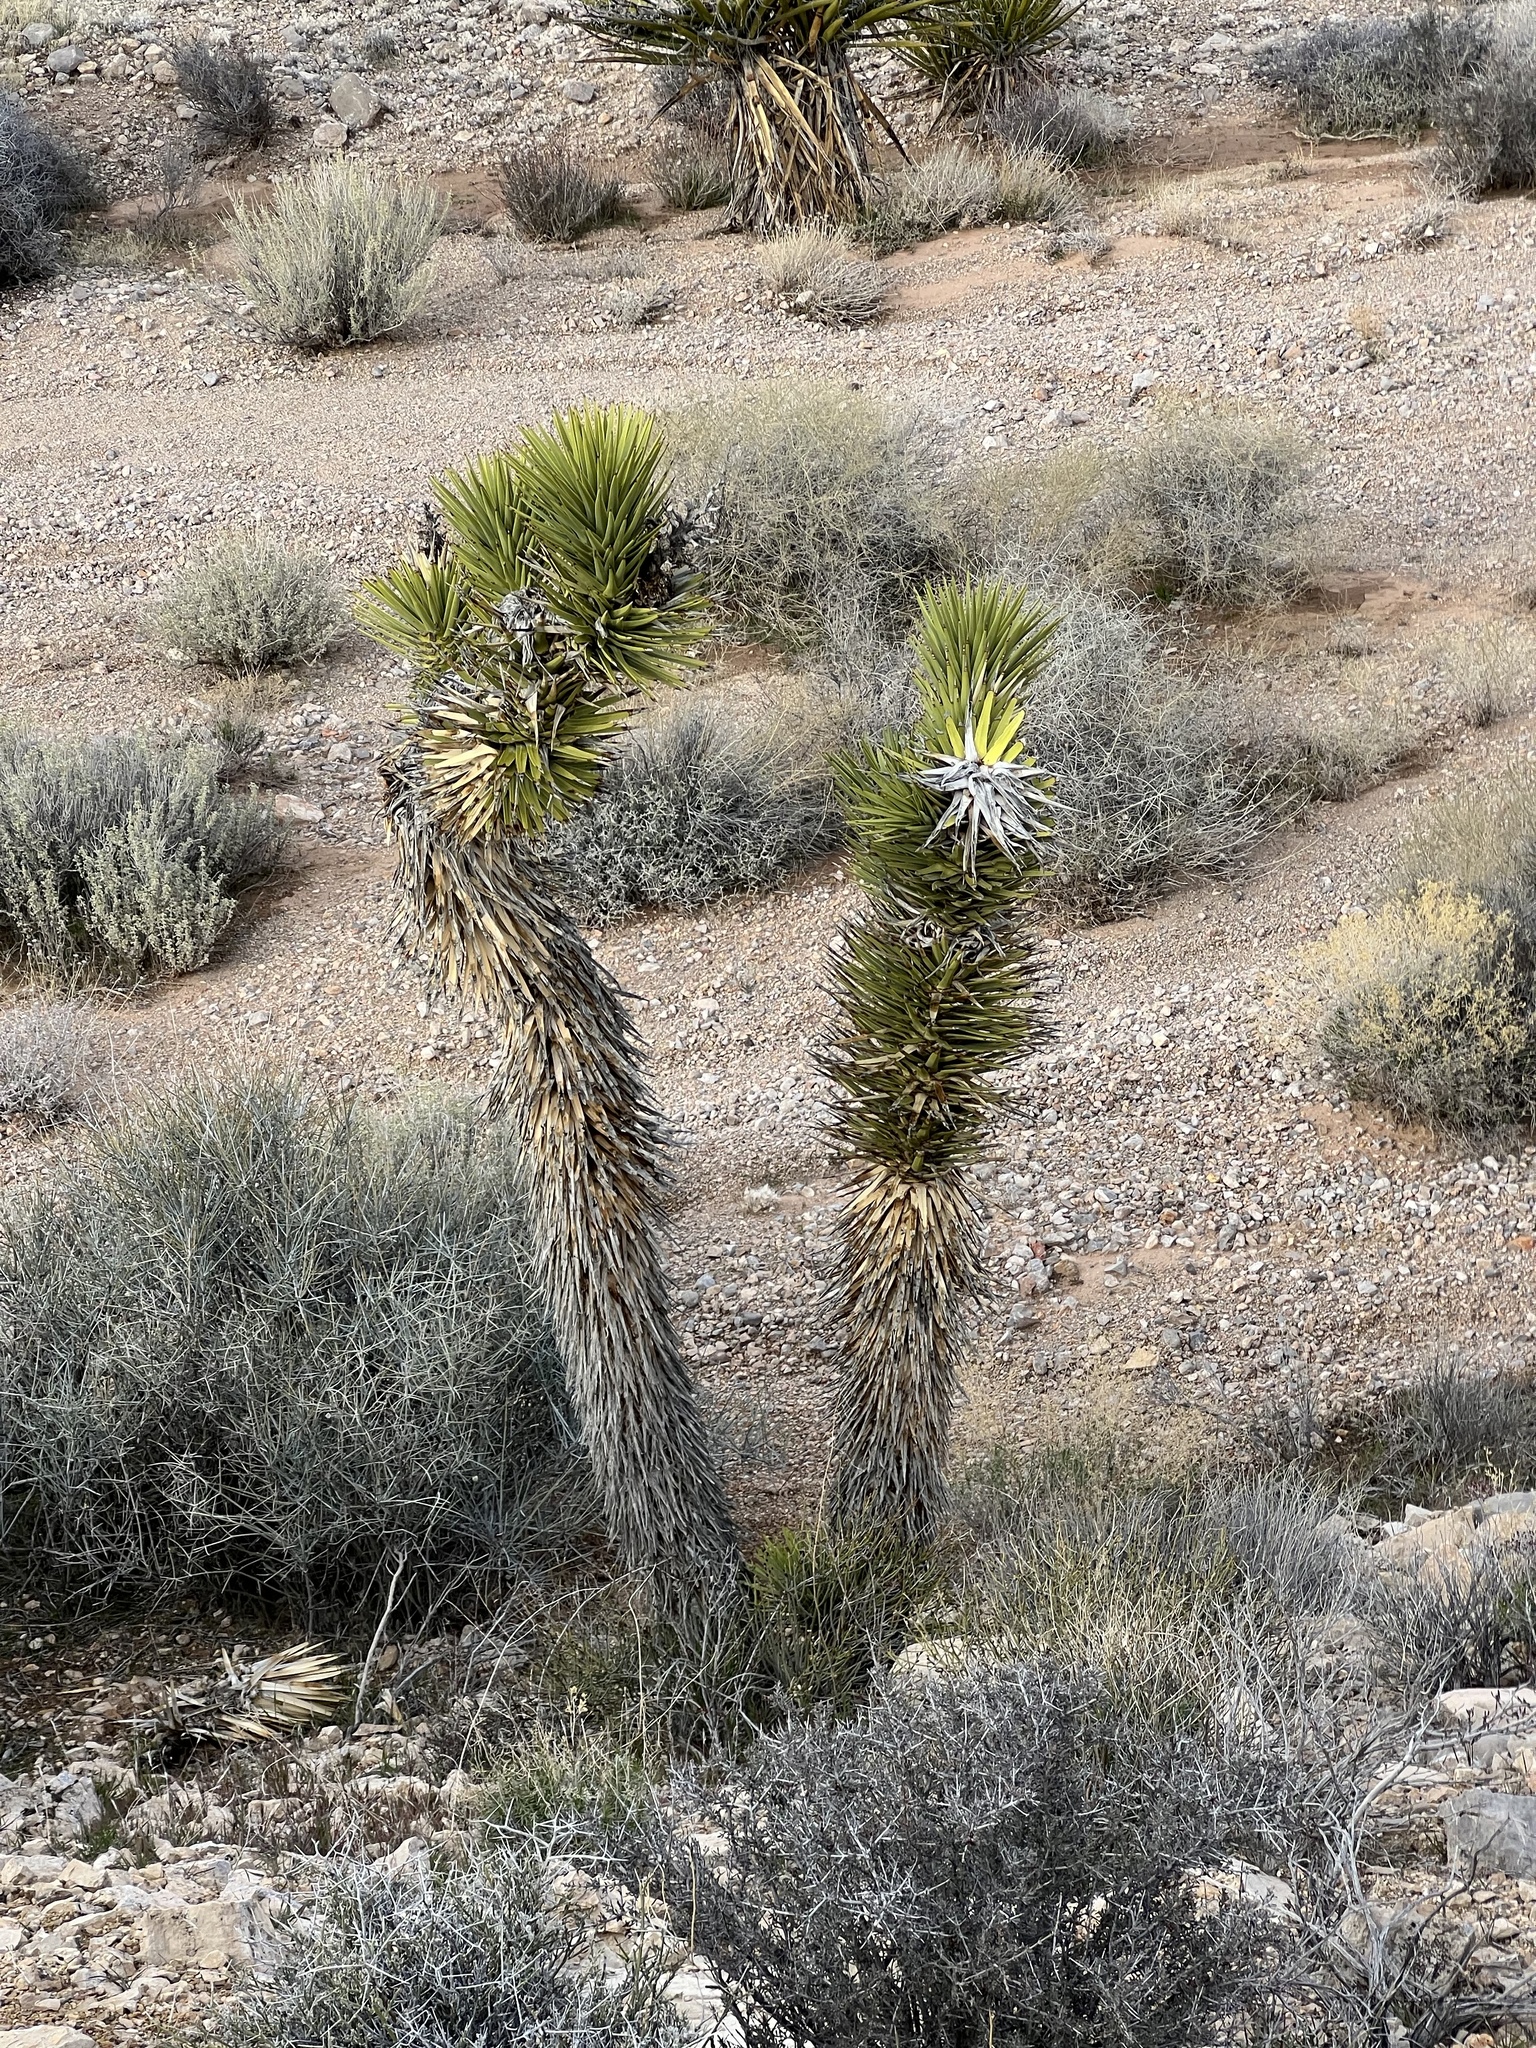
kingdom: Plantae
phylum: Tracheophyta
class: Liliopsida
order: Asparagales
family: Asparagaceae
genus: Yucca
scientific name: Yucca brevifolia
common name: Joshua tree
